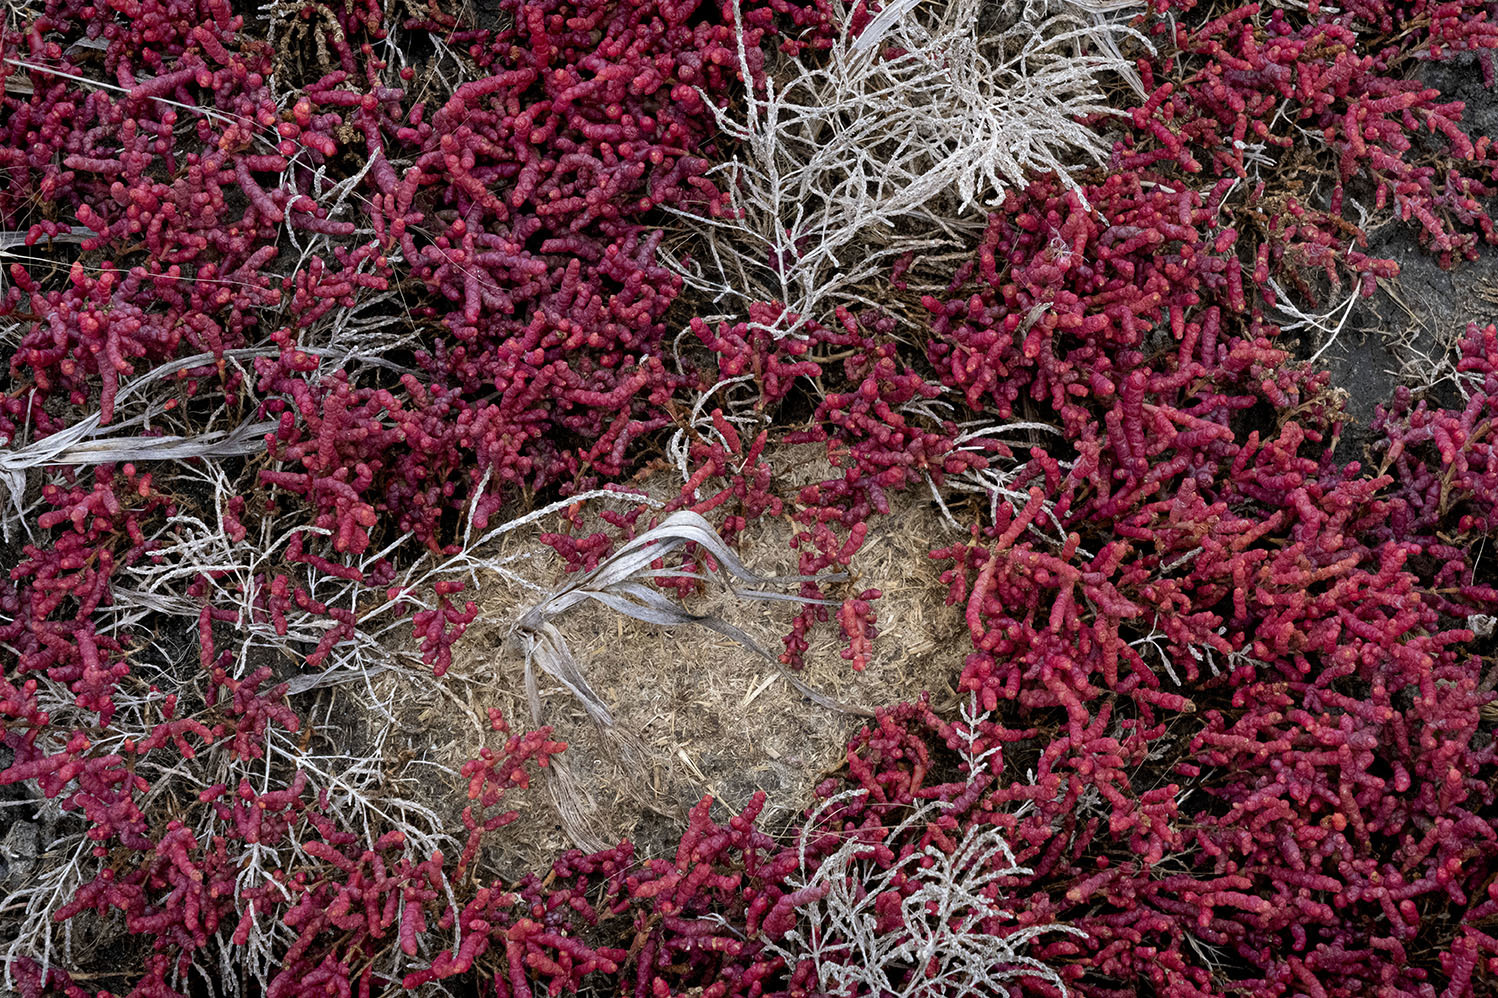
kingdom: Plantae
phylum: Tracheophyta
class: Magnoliopsida
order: Caryophyllales
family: Amaranthaceae
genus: Salicornia
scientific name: Salicornia rubra
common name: Red glasswort
